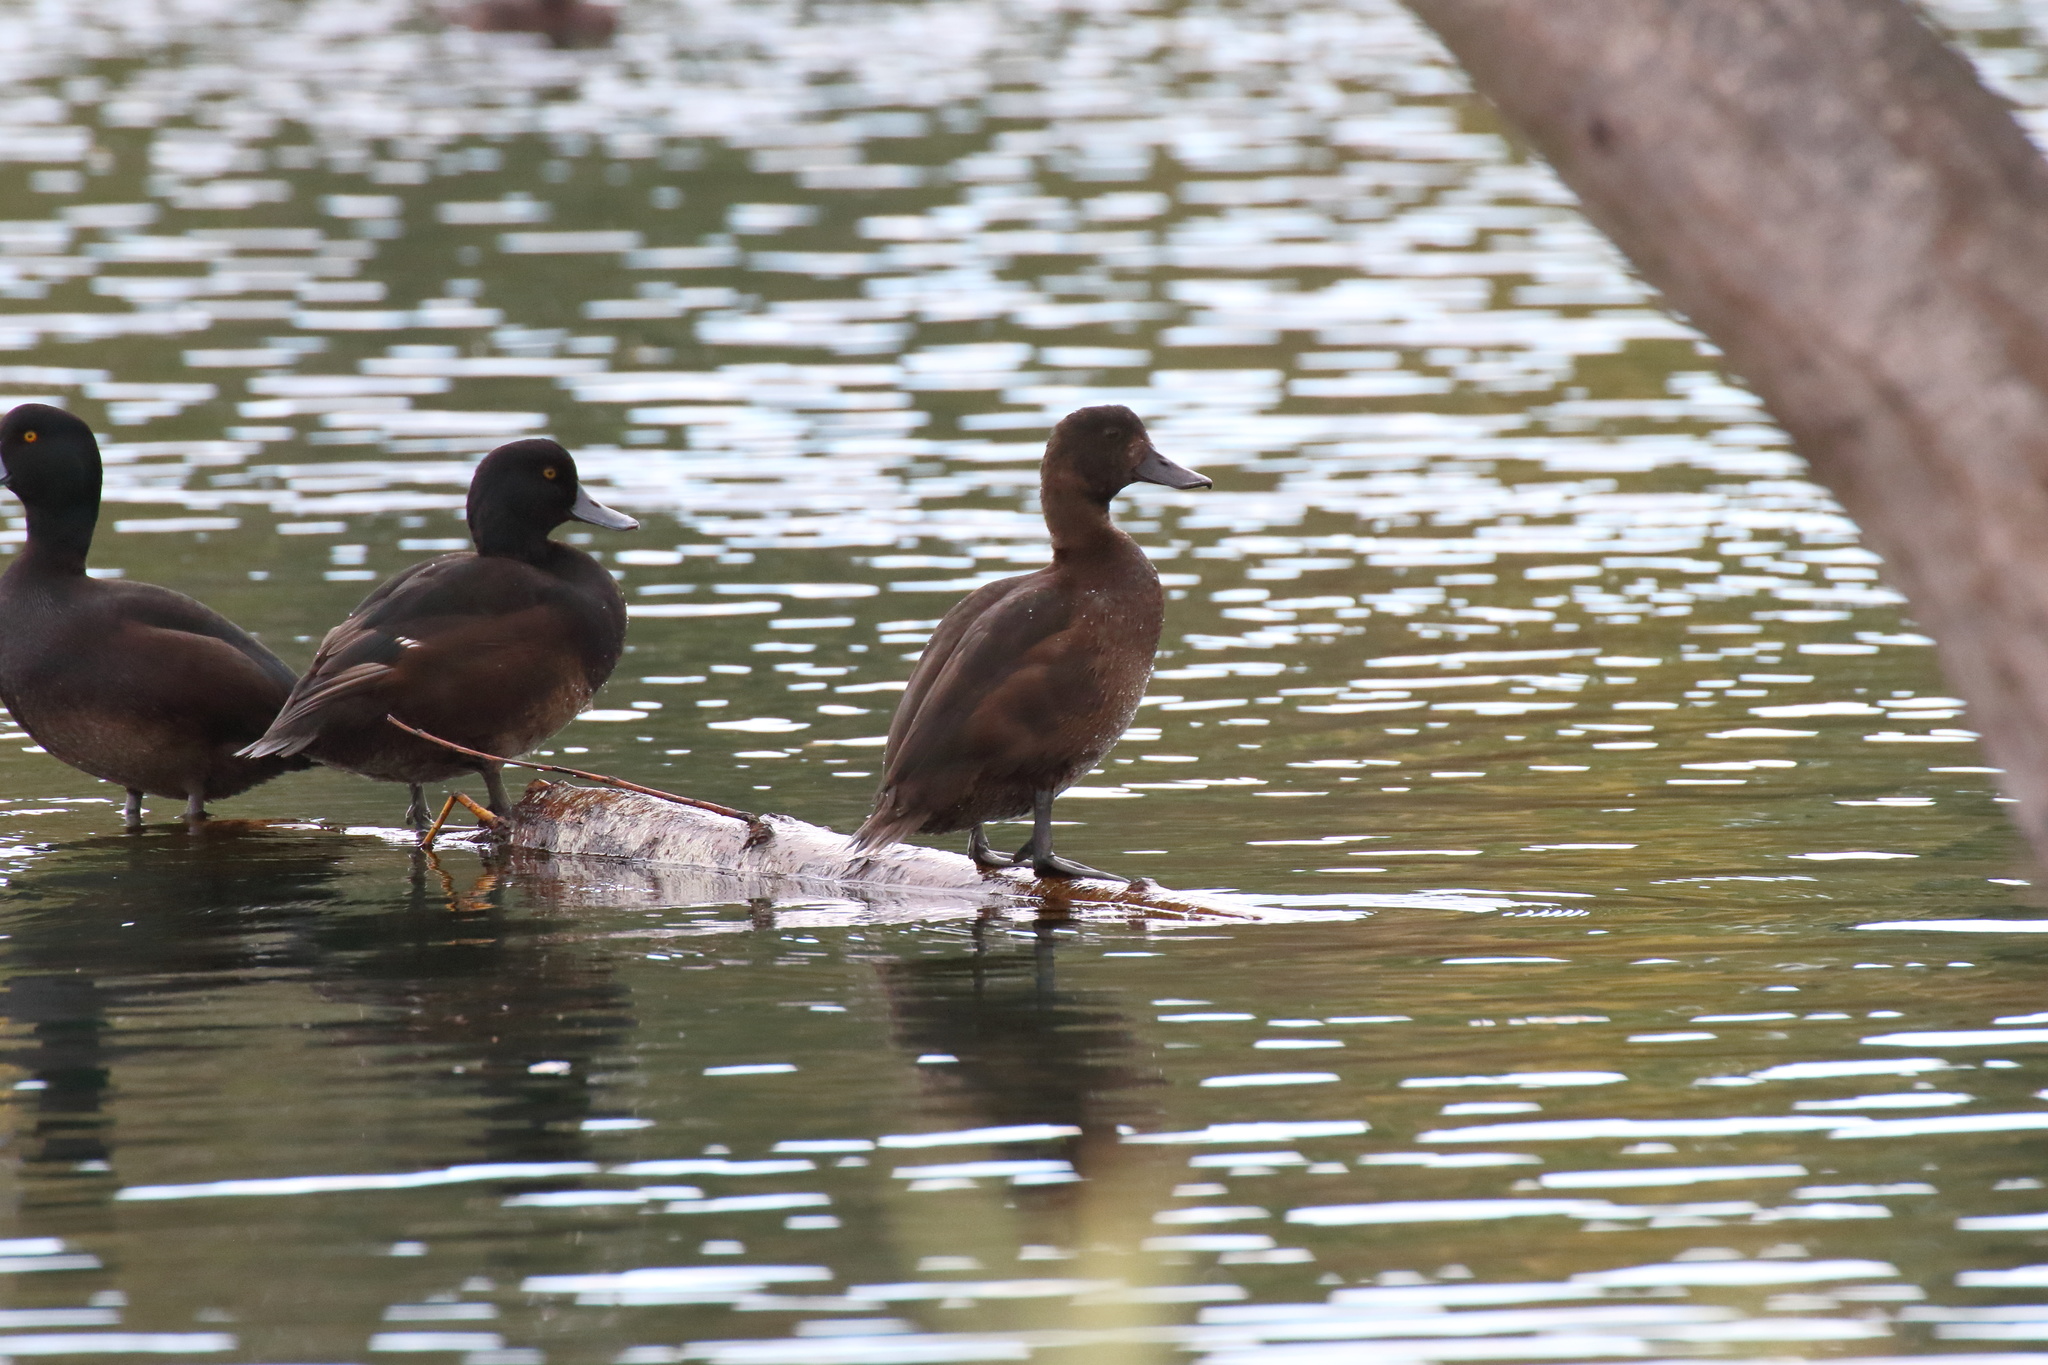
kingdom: Animalia
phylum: Chordata
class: Aves
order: Anseriformes
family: Anatidae
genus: Aythya
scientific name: Aythya novaeseelandiae
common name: New zealand scaup
